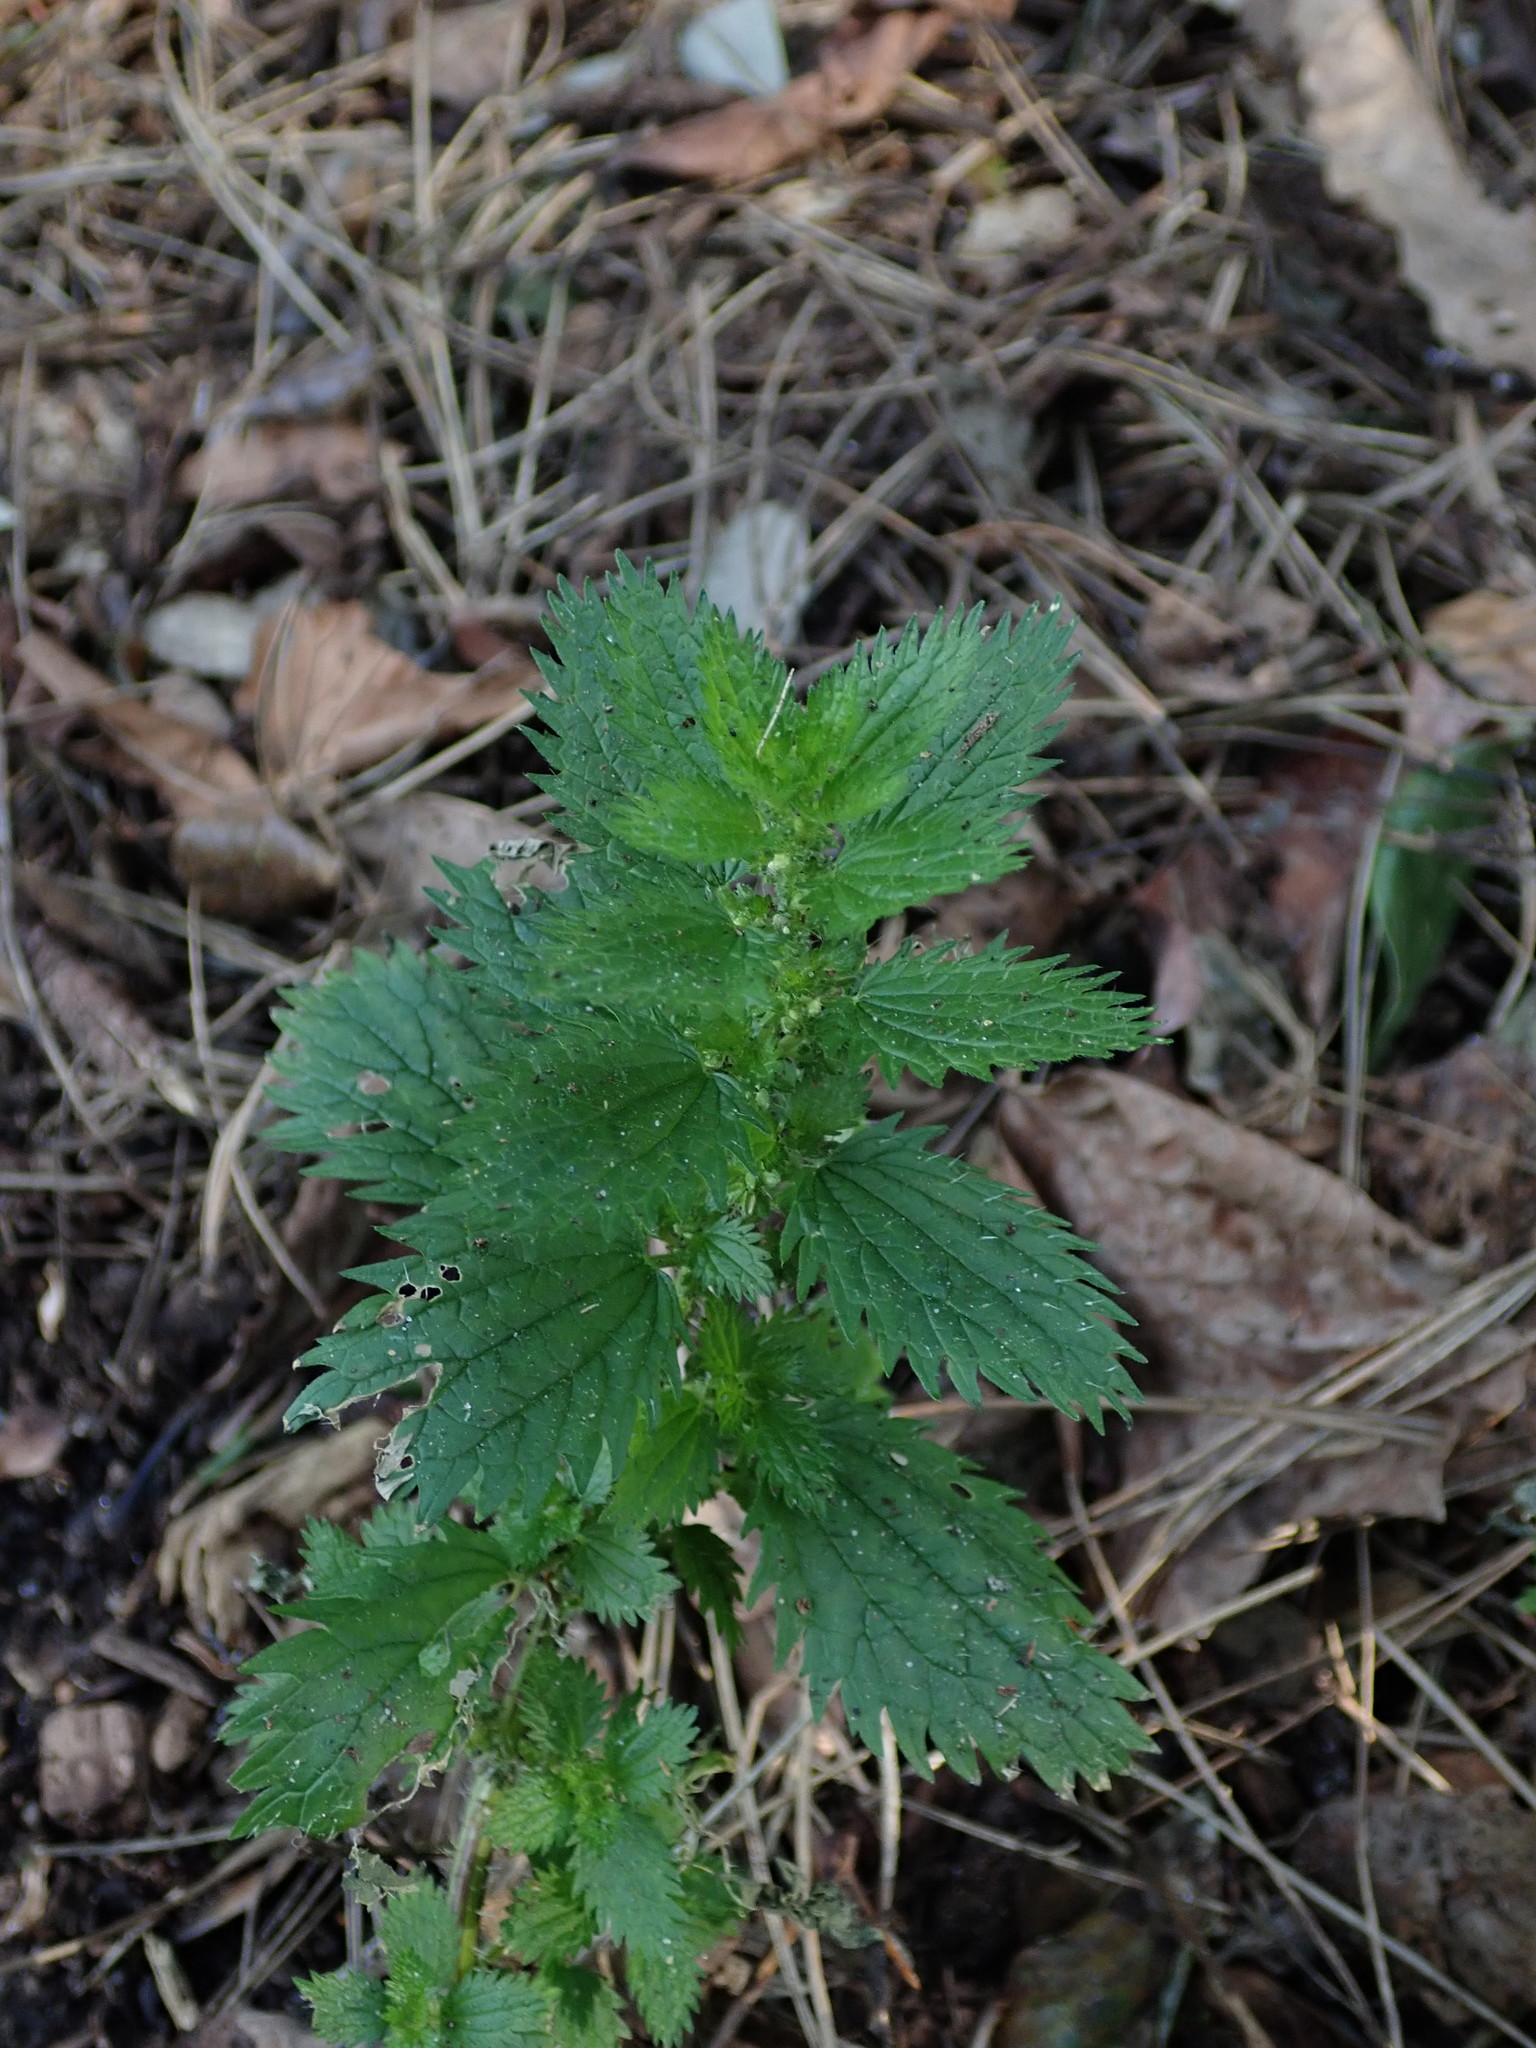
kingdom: Plantae
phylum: Tracheophyta
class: Magnoliopsida
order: Rosales
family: Urticaceae
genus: Urtica
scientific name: Urtica urens
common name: Dwarf nettle
